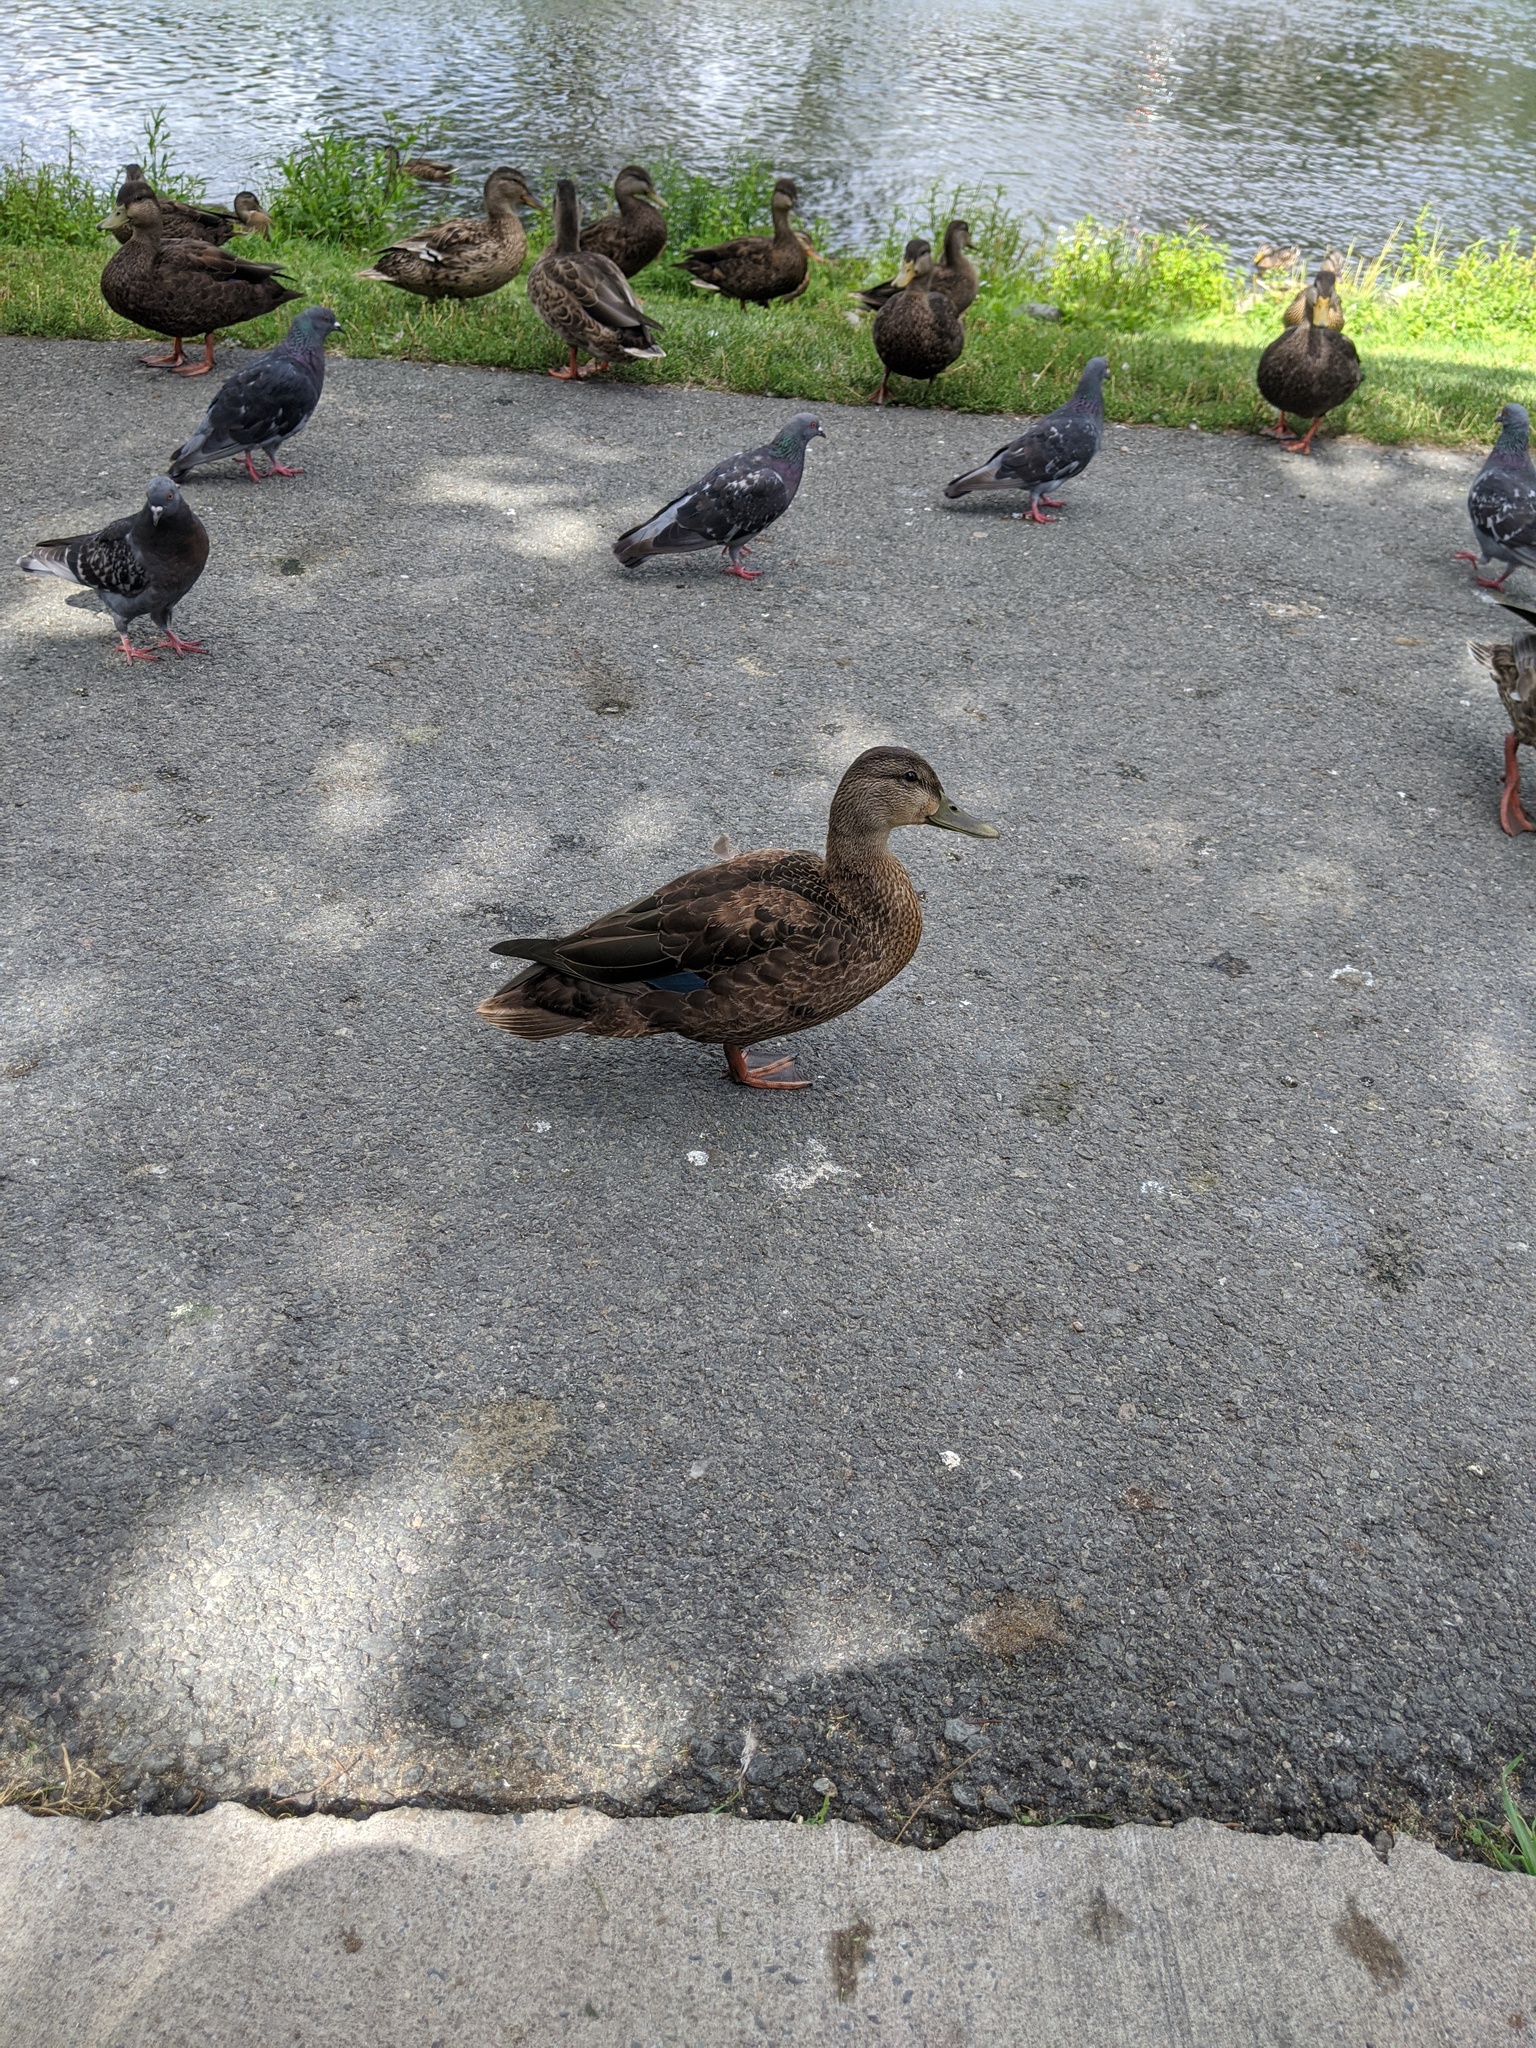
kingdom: Animalia
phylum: Chordata
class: Aves
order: Anseriformes
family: Anatidae
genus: Anas
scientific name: Anas rubripes
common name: American black duck
